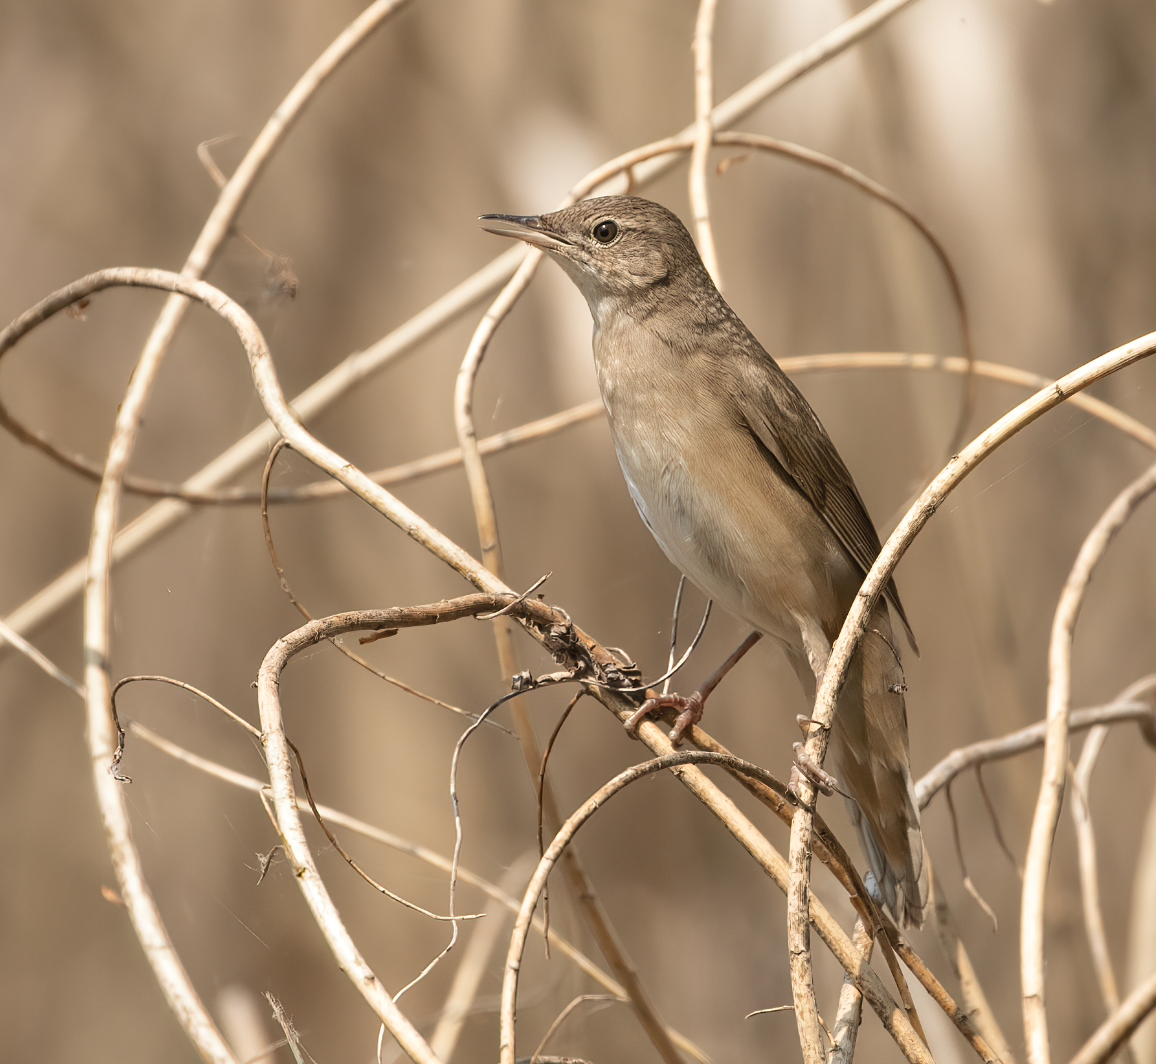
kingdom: Animalia
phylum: Chordata
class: Aves
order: Passeriformes
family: Locustellidae
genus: Locustella
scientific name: Locustella luscinioides
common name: Savi's warbler
